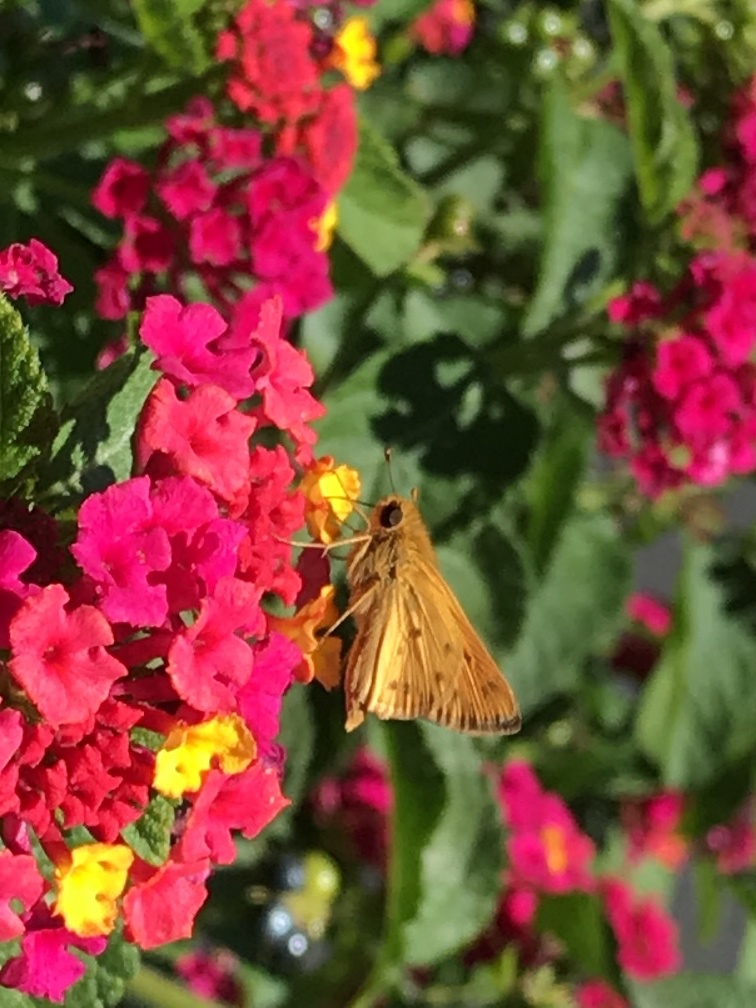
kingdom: Animalia
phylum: Arthropoda
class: Insecta
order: Lepidoptera
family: Hesperiidae
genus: Hylephila
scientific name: Hylephila phyleus
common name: Fiery skipper
